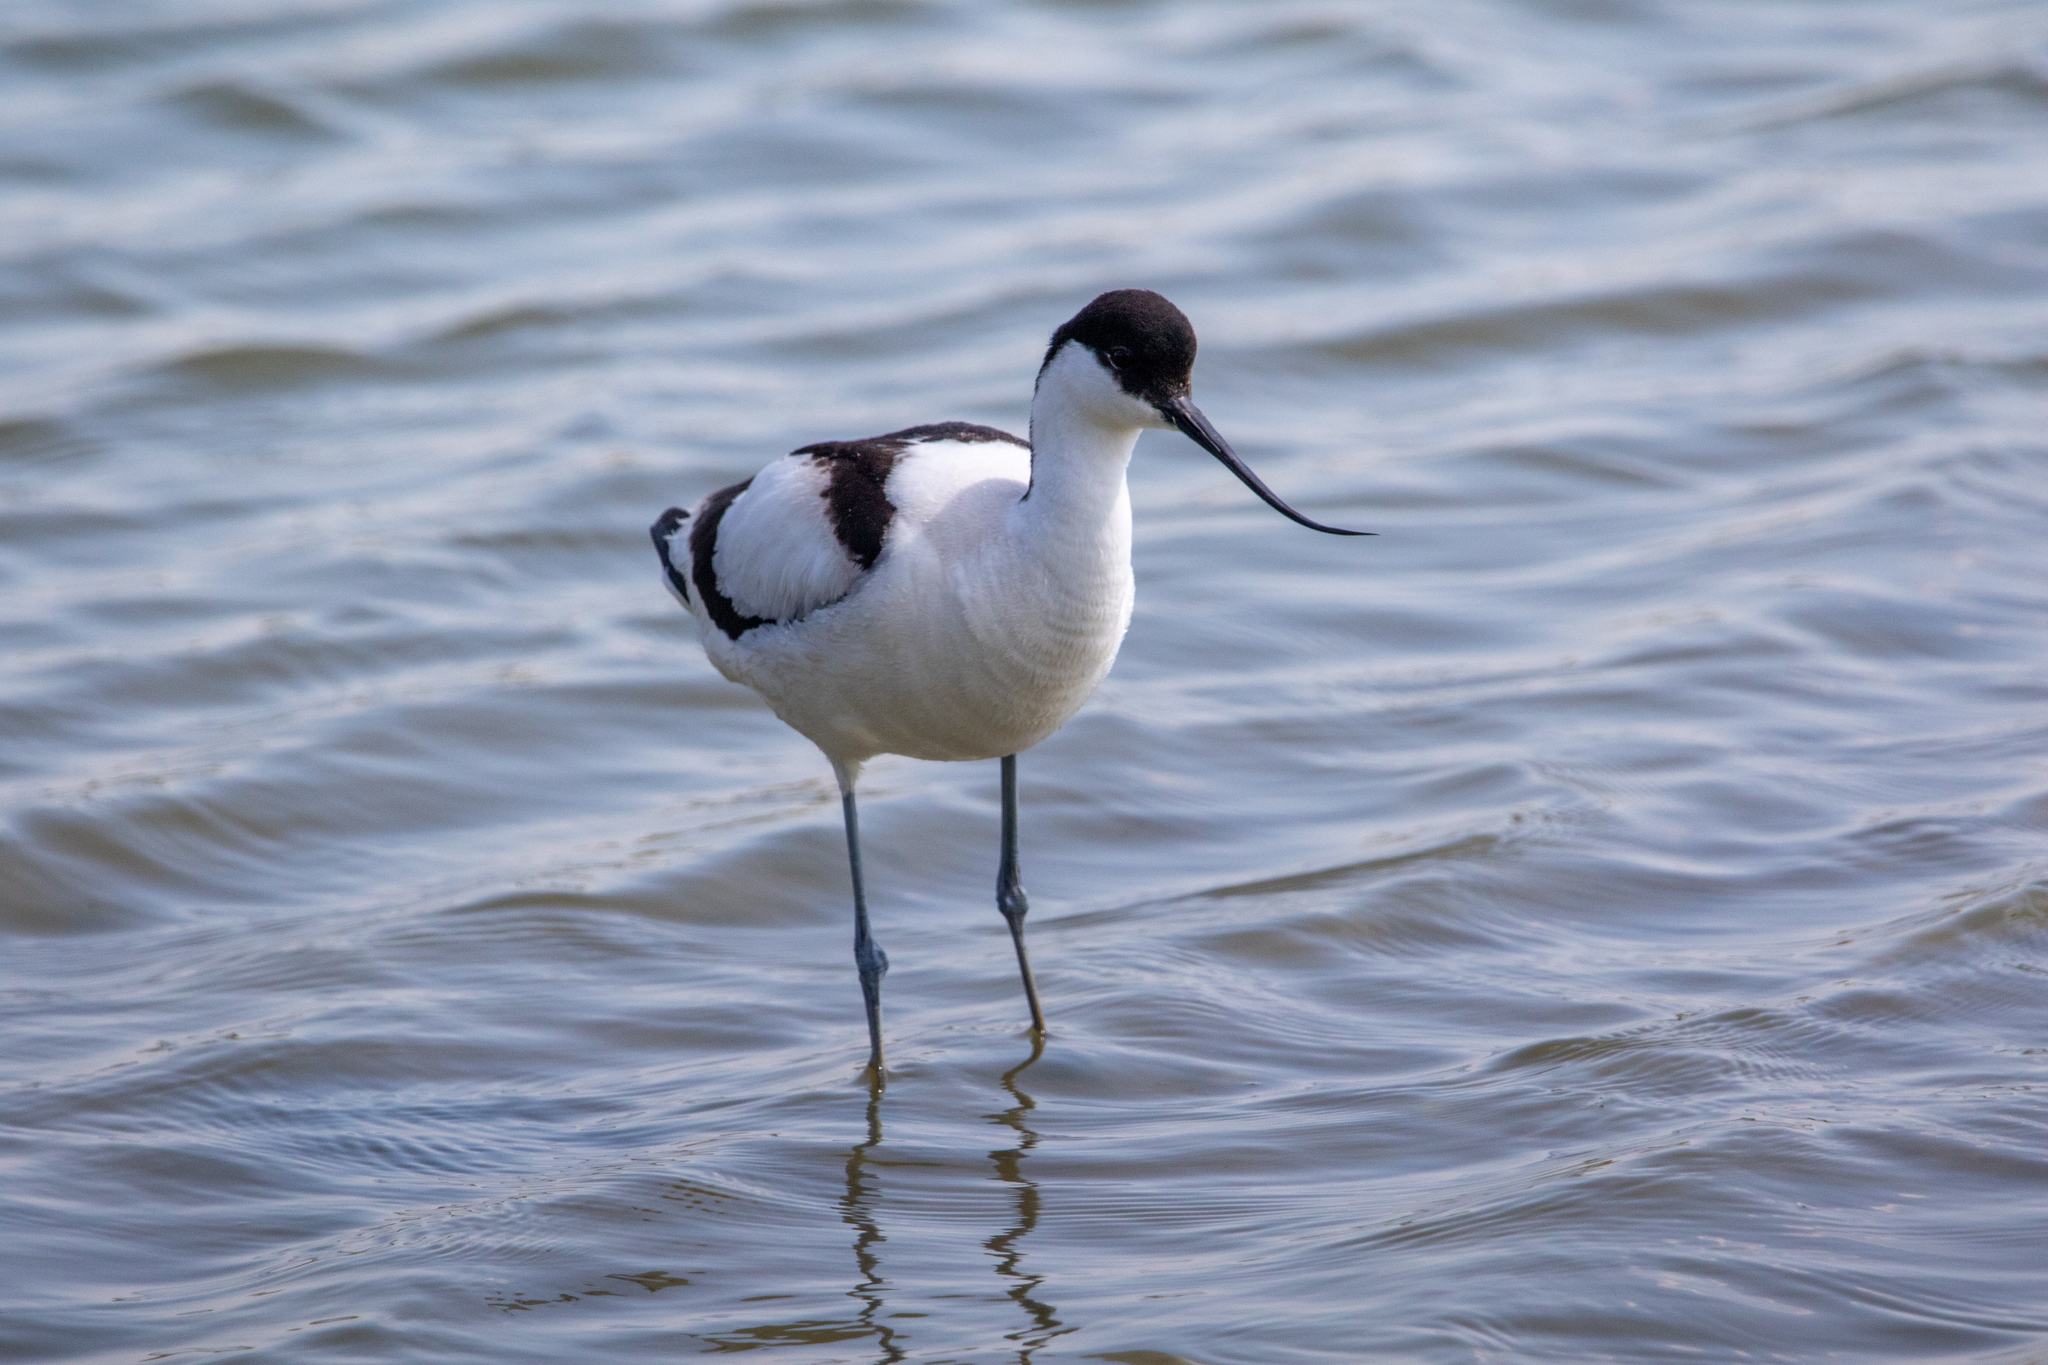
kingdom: Animalia
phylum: Chordata
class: Aves
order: Charadriiformes
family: Recurvirostridae
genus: Recurvirostra
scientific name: Recurvirostra avosetta
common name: Pied avocet
